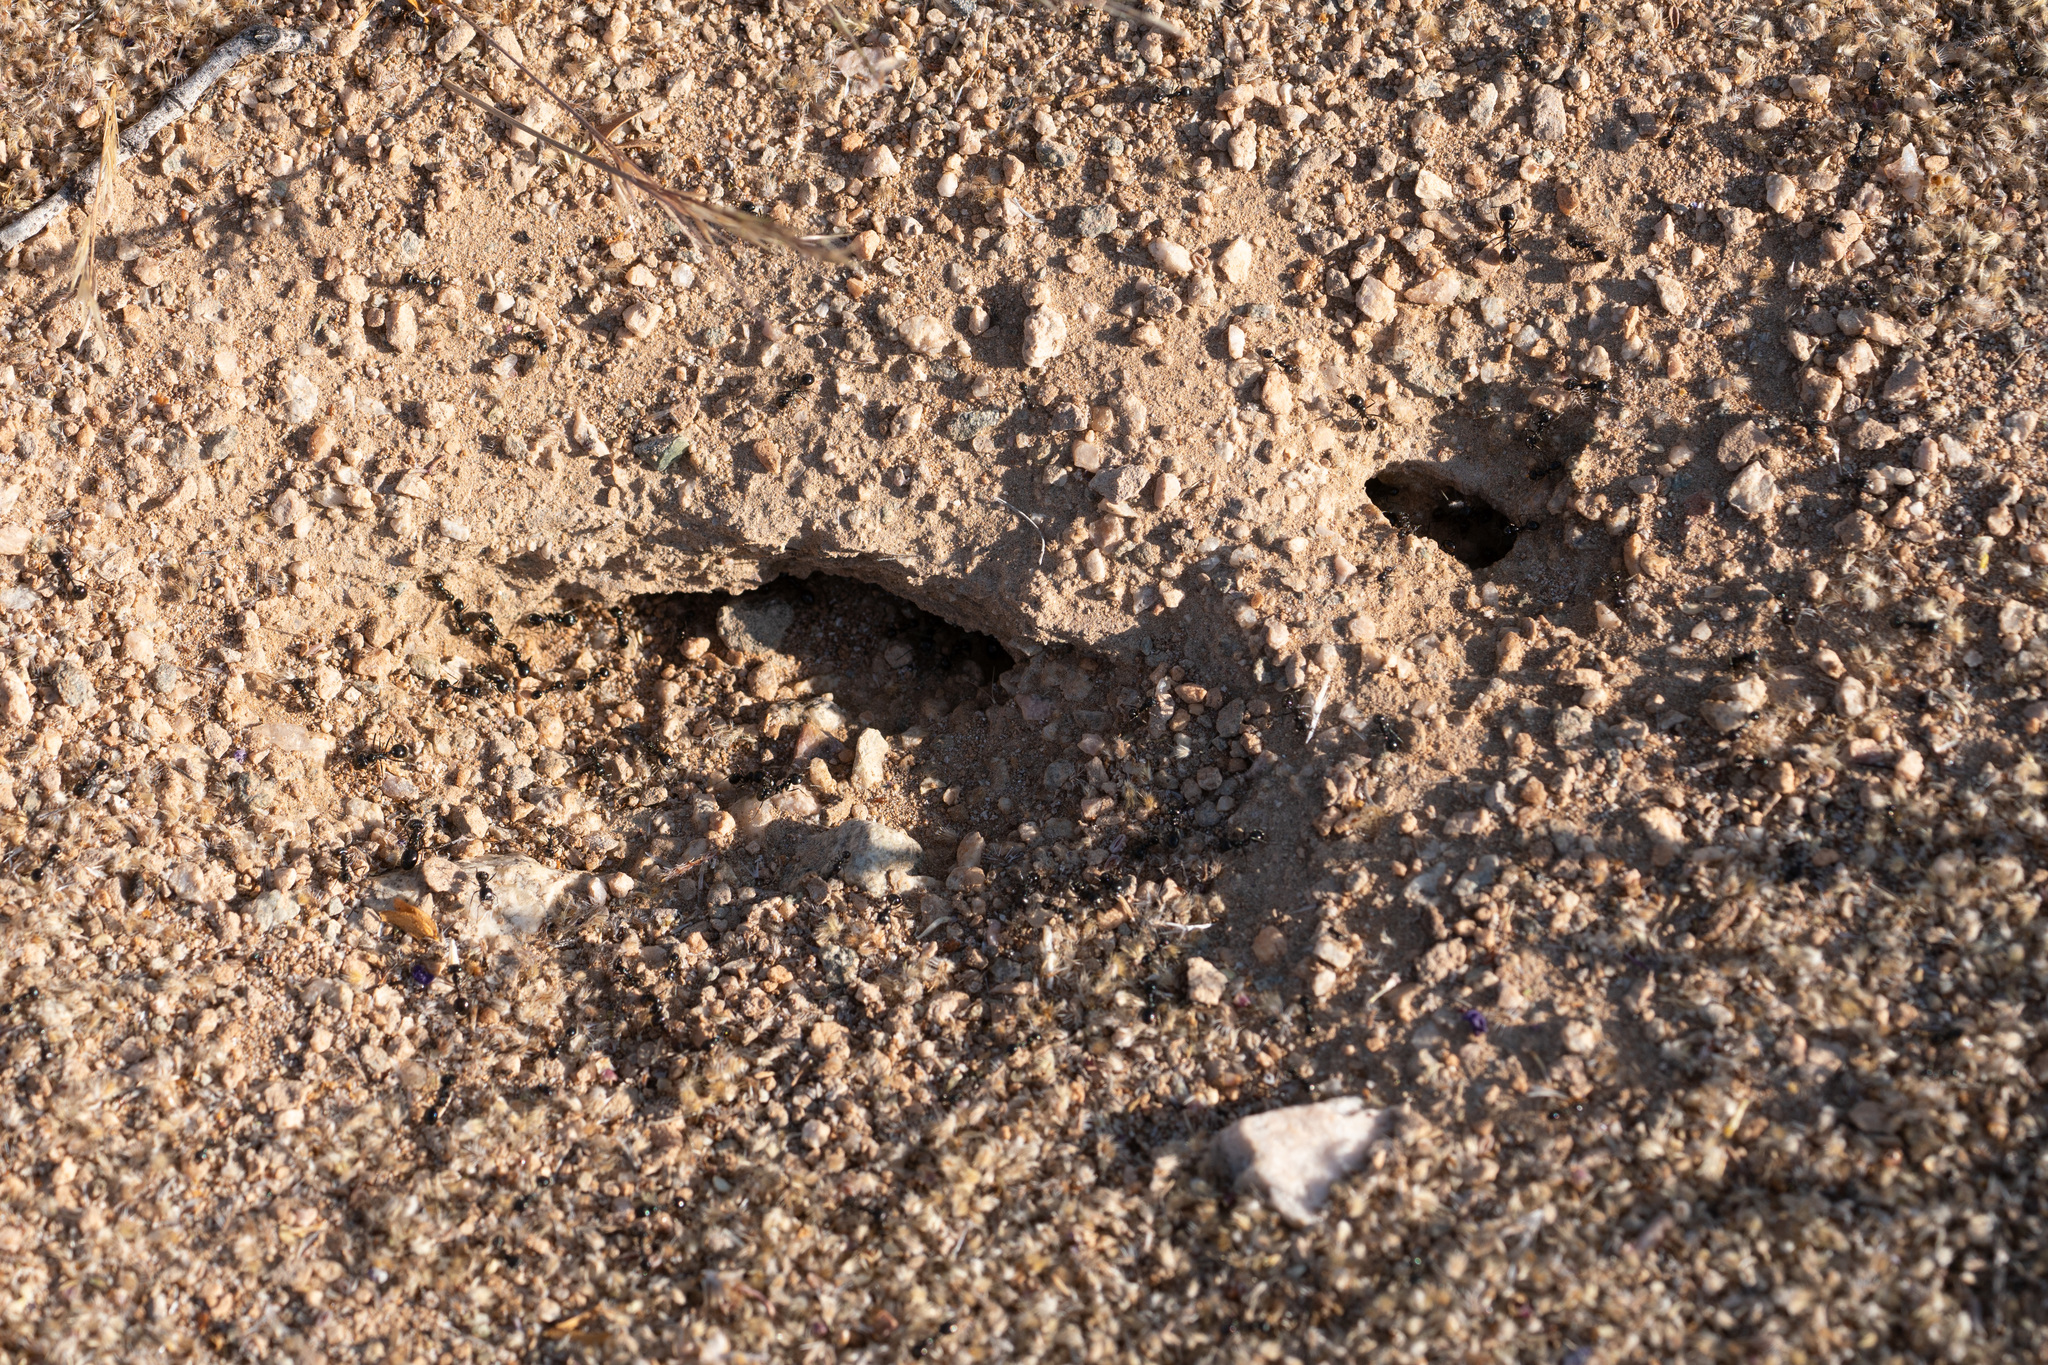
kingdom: Animalia
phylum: Arthropoda
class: Insecta
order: Hymenoptera
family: Formicidae
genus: Messor
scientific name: Messor pergandei
